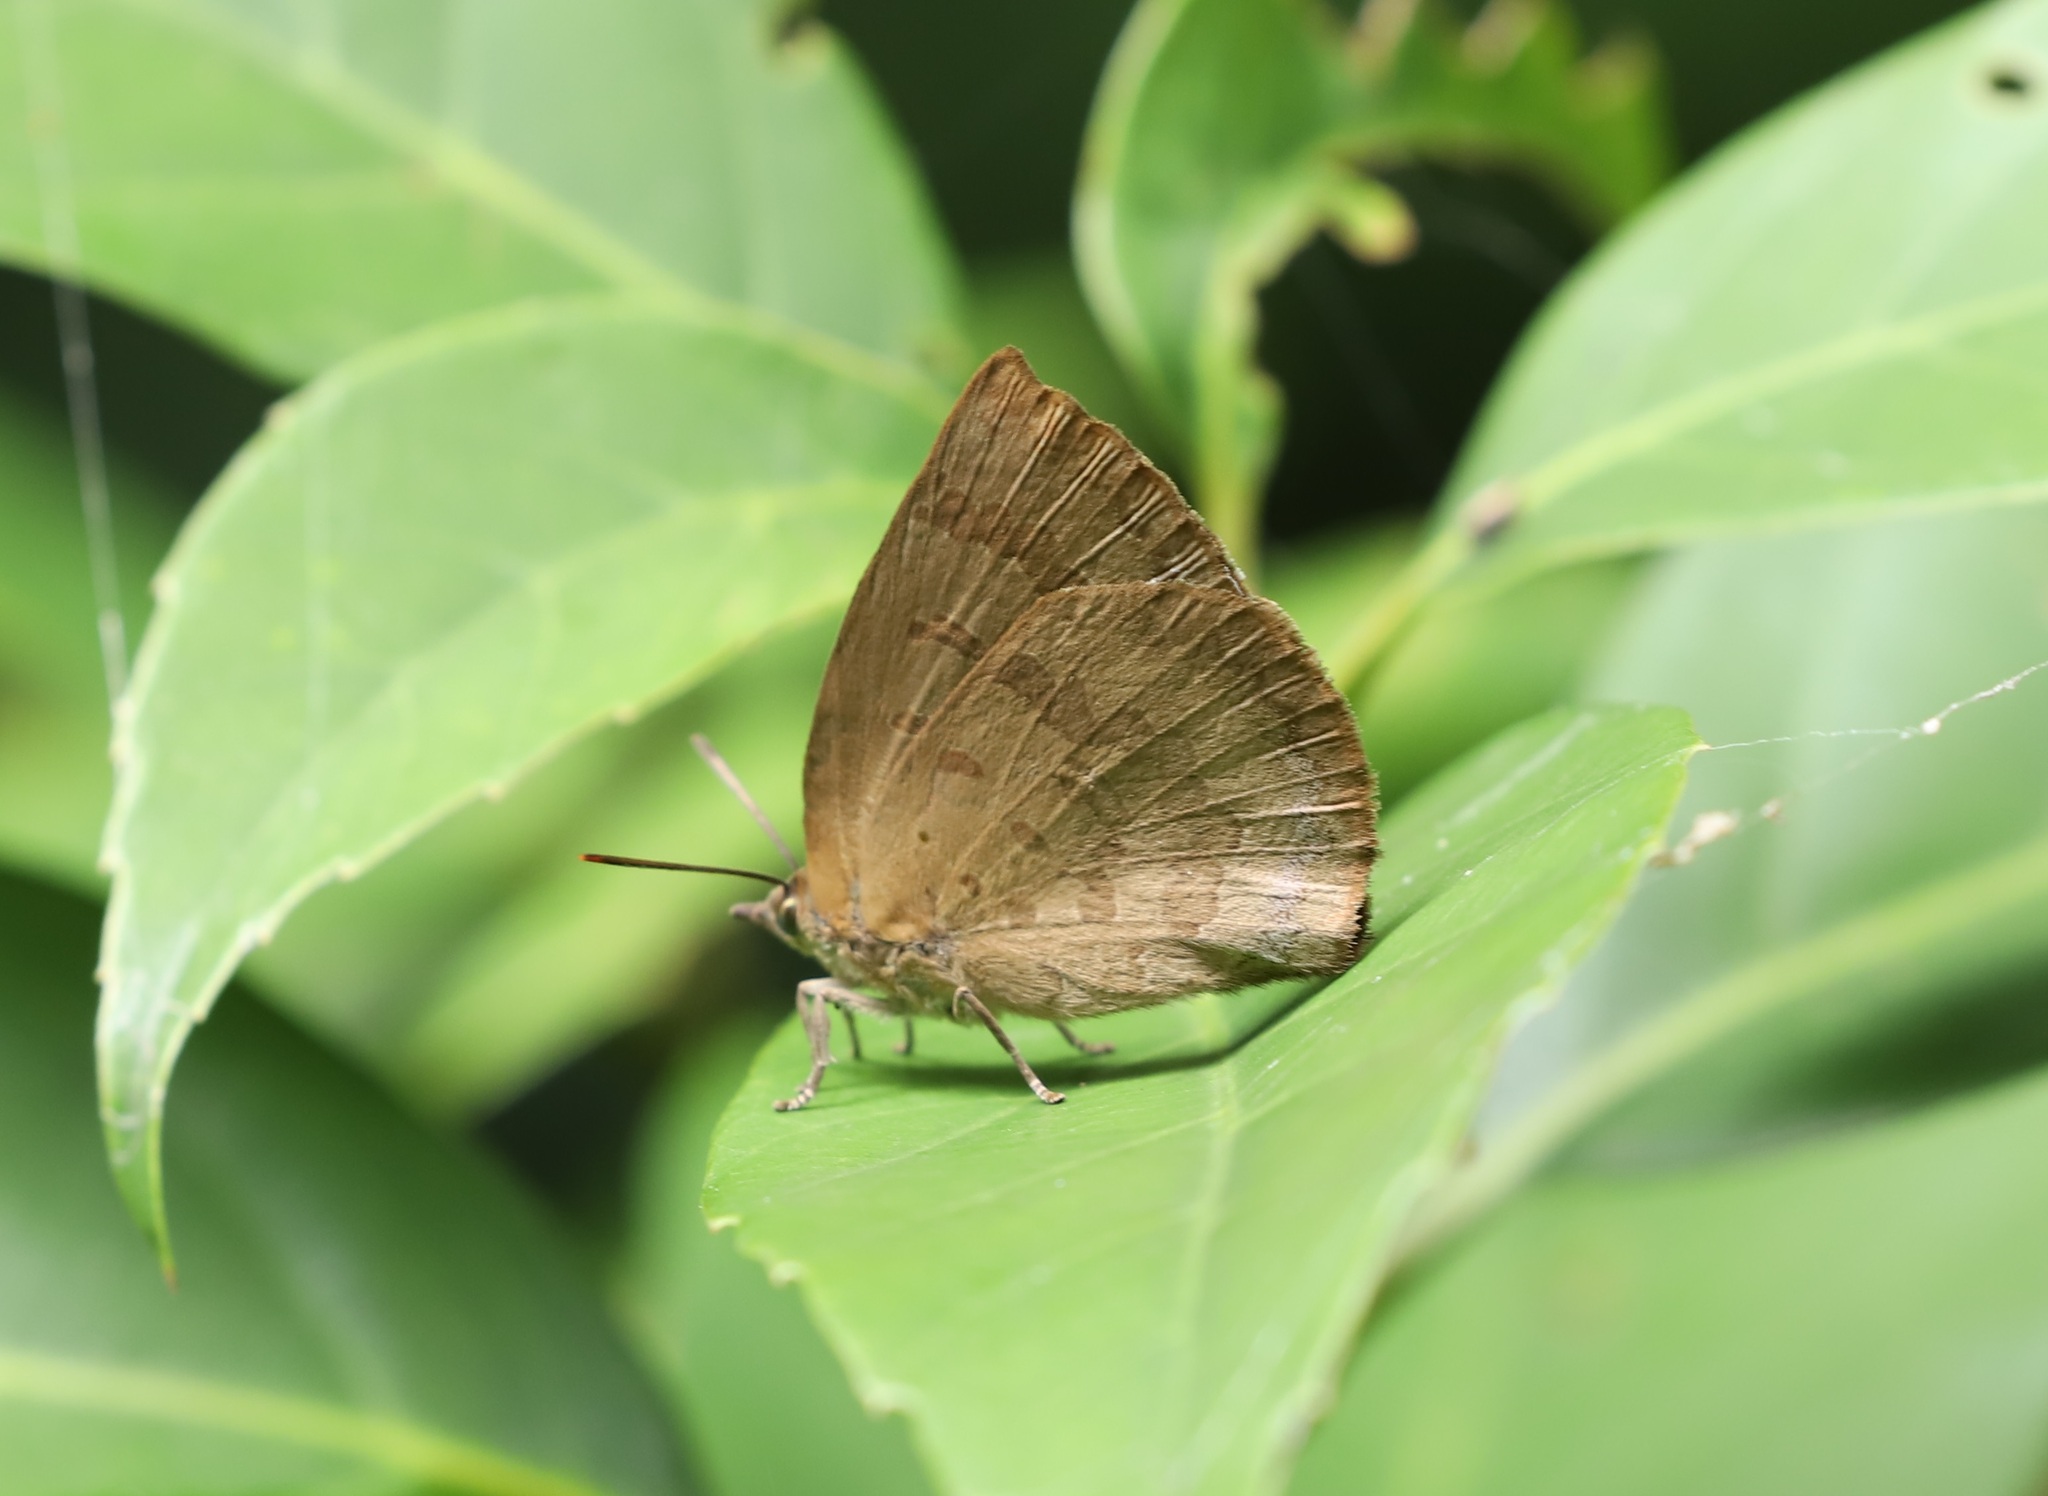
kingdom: Animalia
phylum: Arthropoda
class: Insecta
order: Lepidoptera
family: Lycaenidae
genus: Arhopala
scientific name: Arhopala japonica
